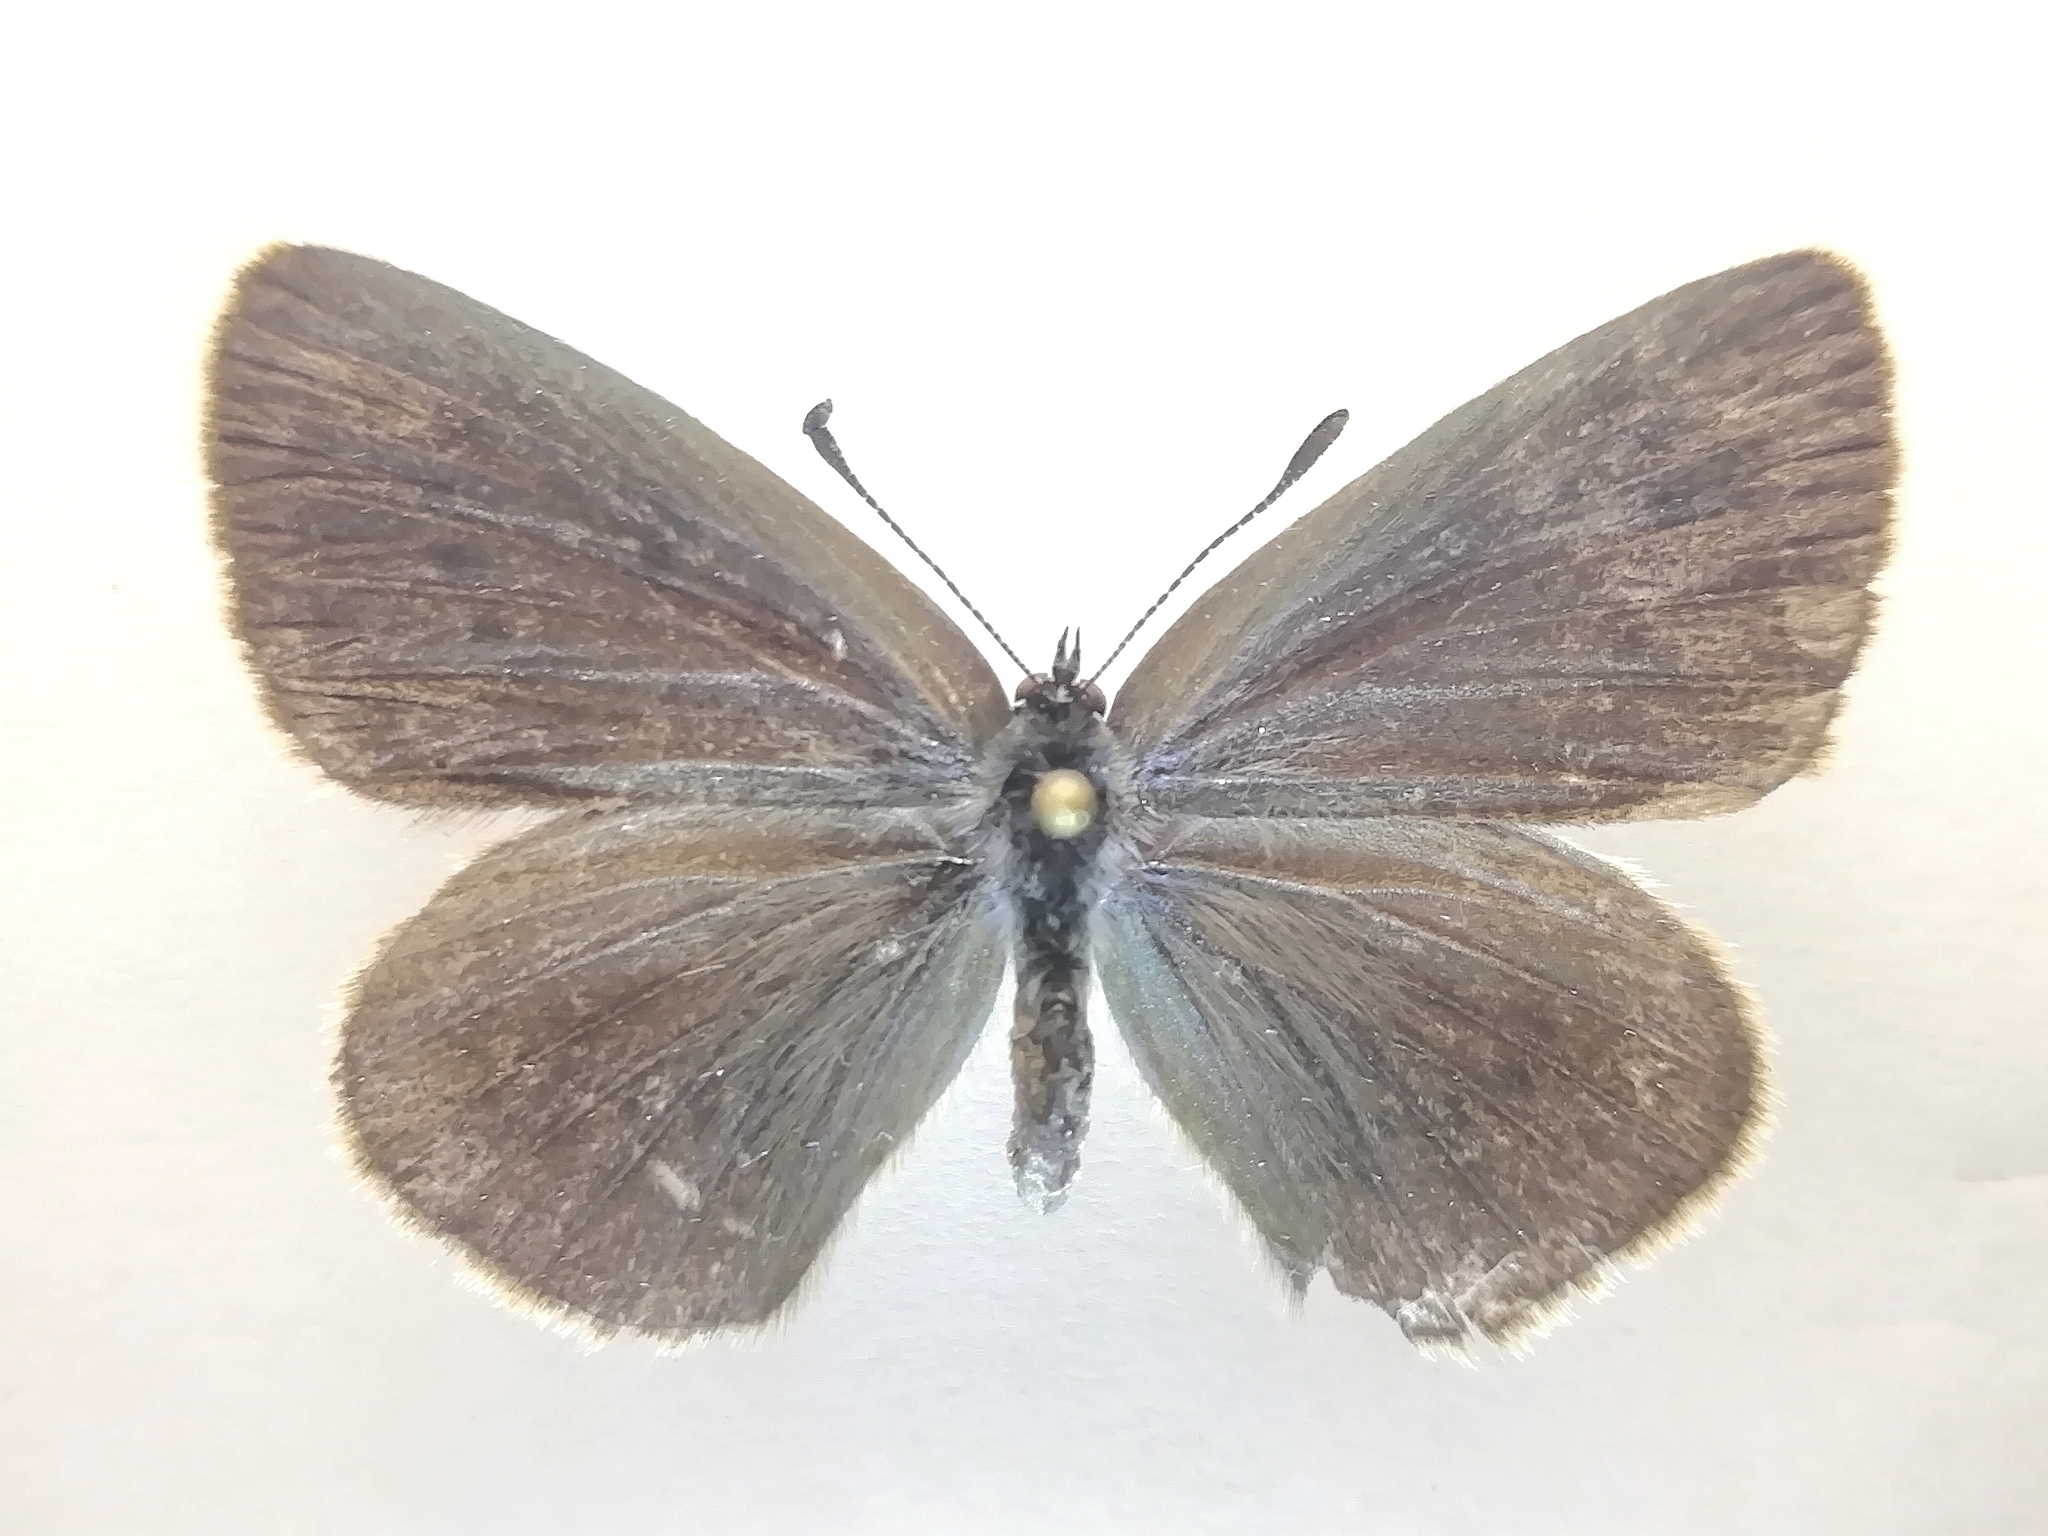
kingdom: Animalia
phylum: Arthropoda
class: Insecta
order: Lepidoptera
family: Lycaenidae
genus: Phengaris
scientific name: Phengaris teleius
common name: Scarce large blue
